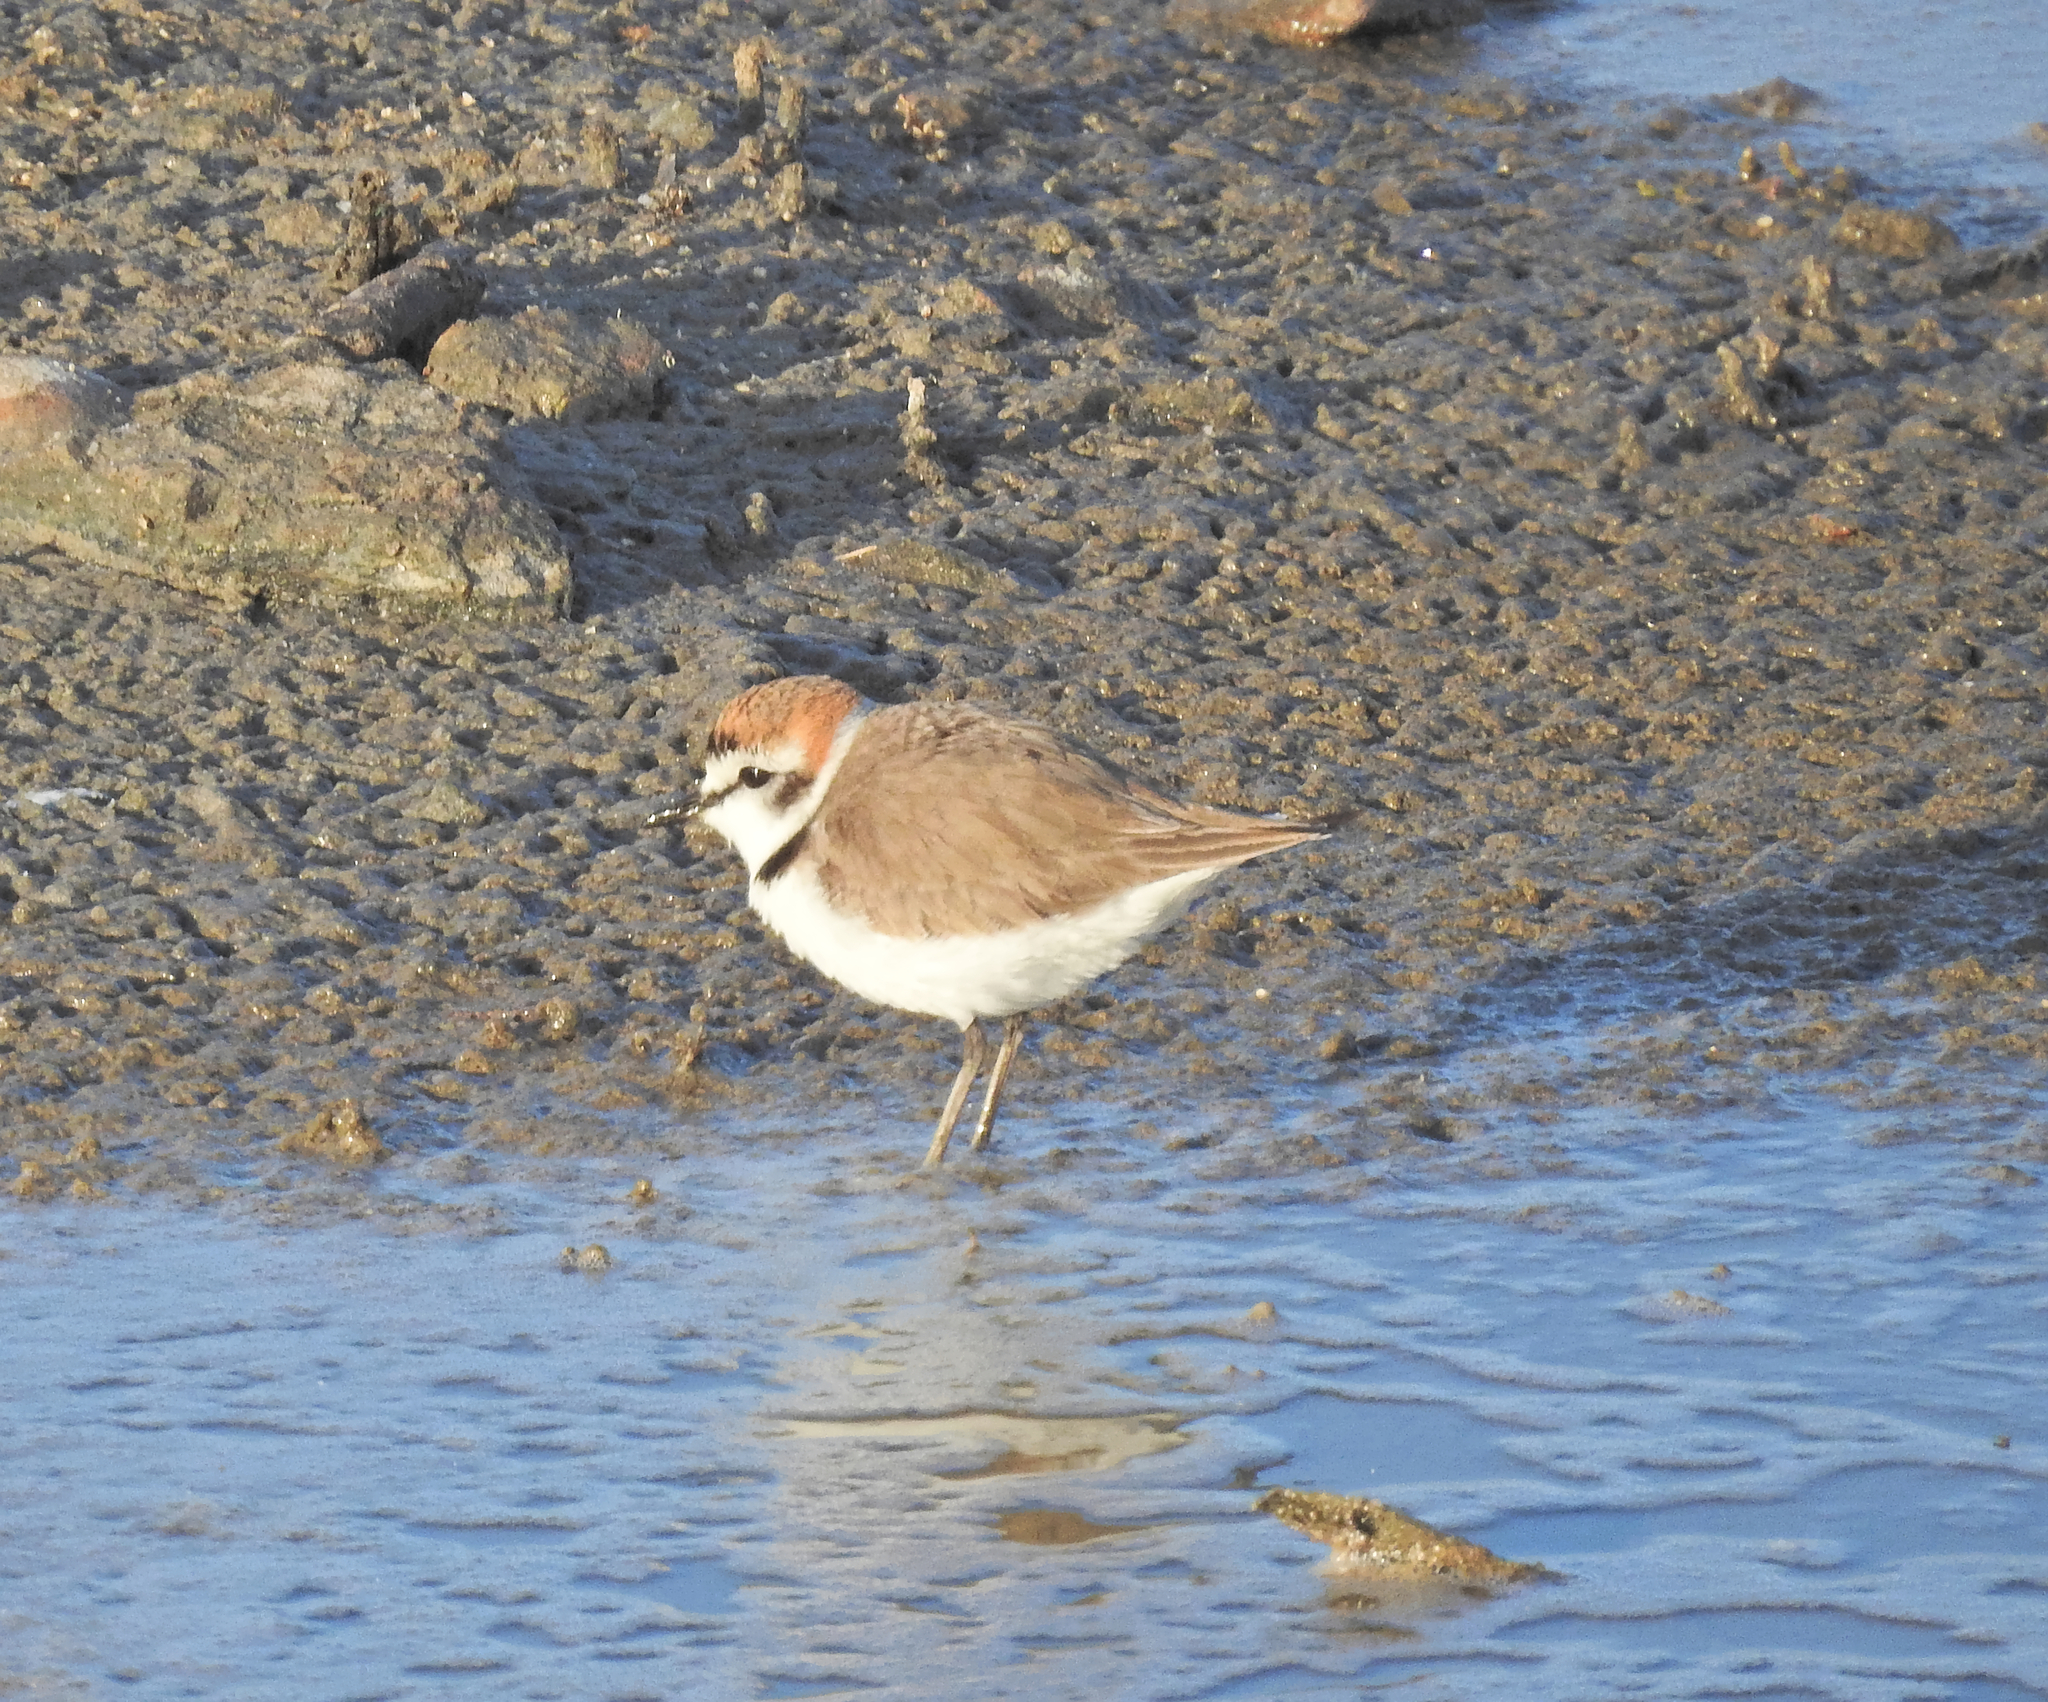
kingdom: Animalia
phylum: Chordata
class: Aves
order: Charadriiformes
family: Charadriidae
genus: Charadrius
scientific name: Charadrius alexandrinus
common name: Kentish plover
